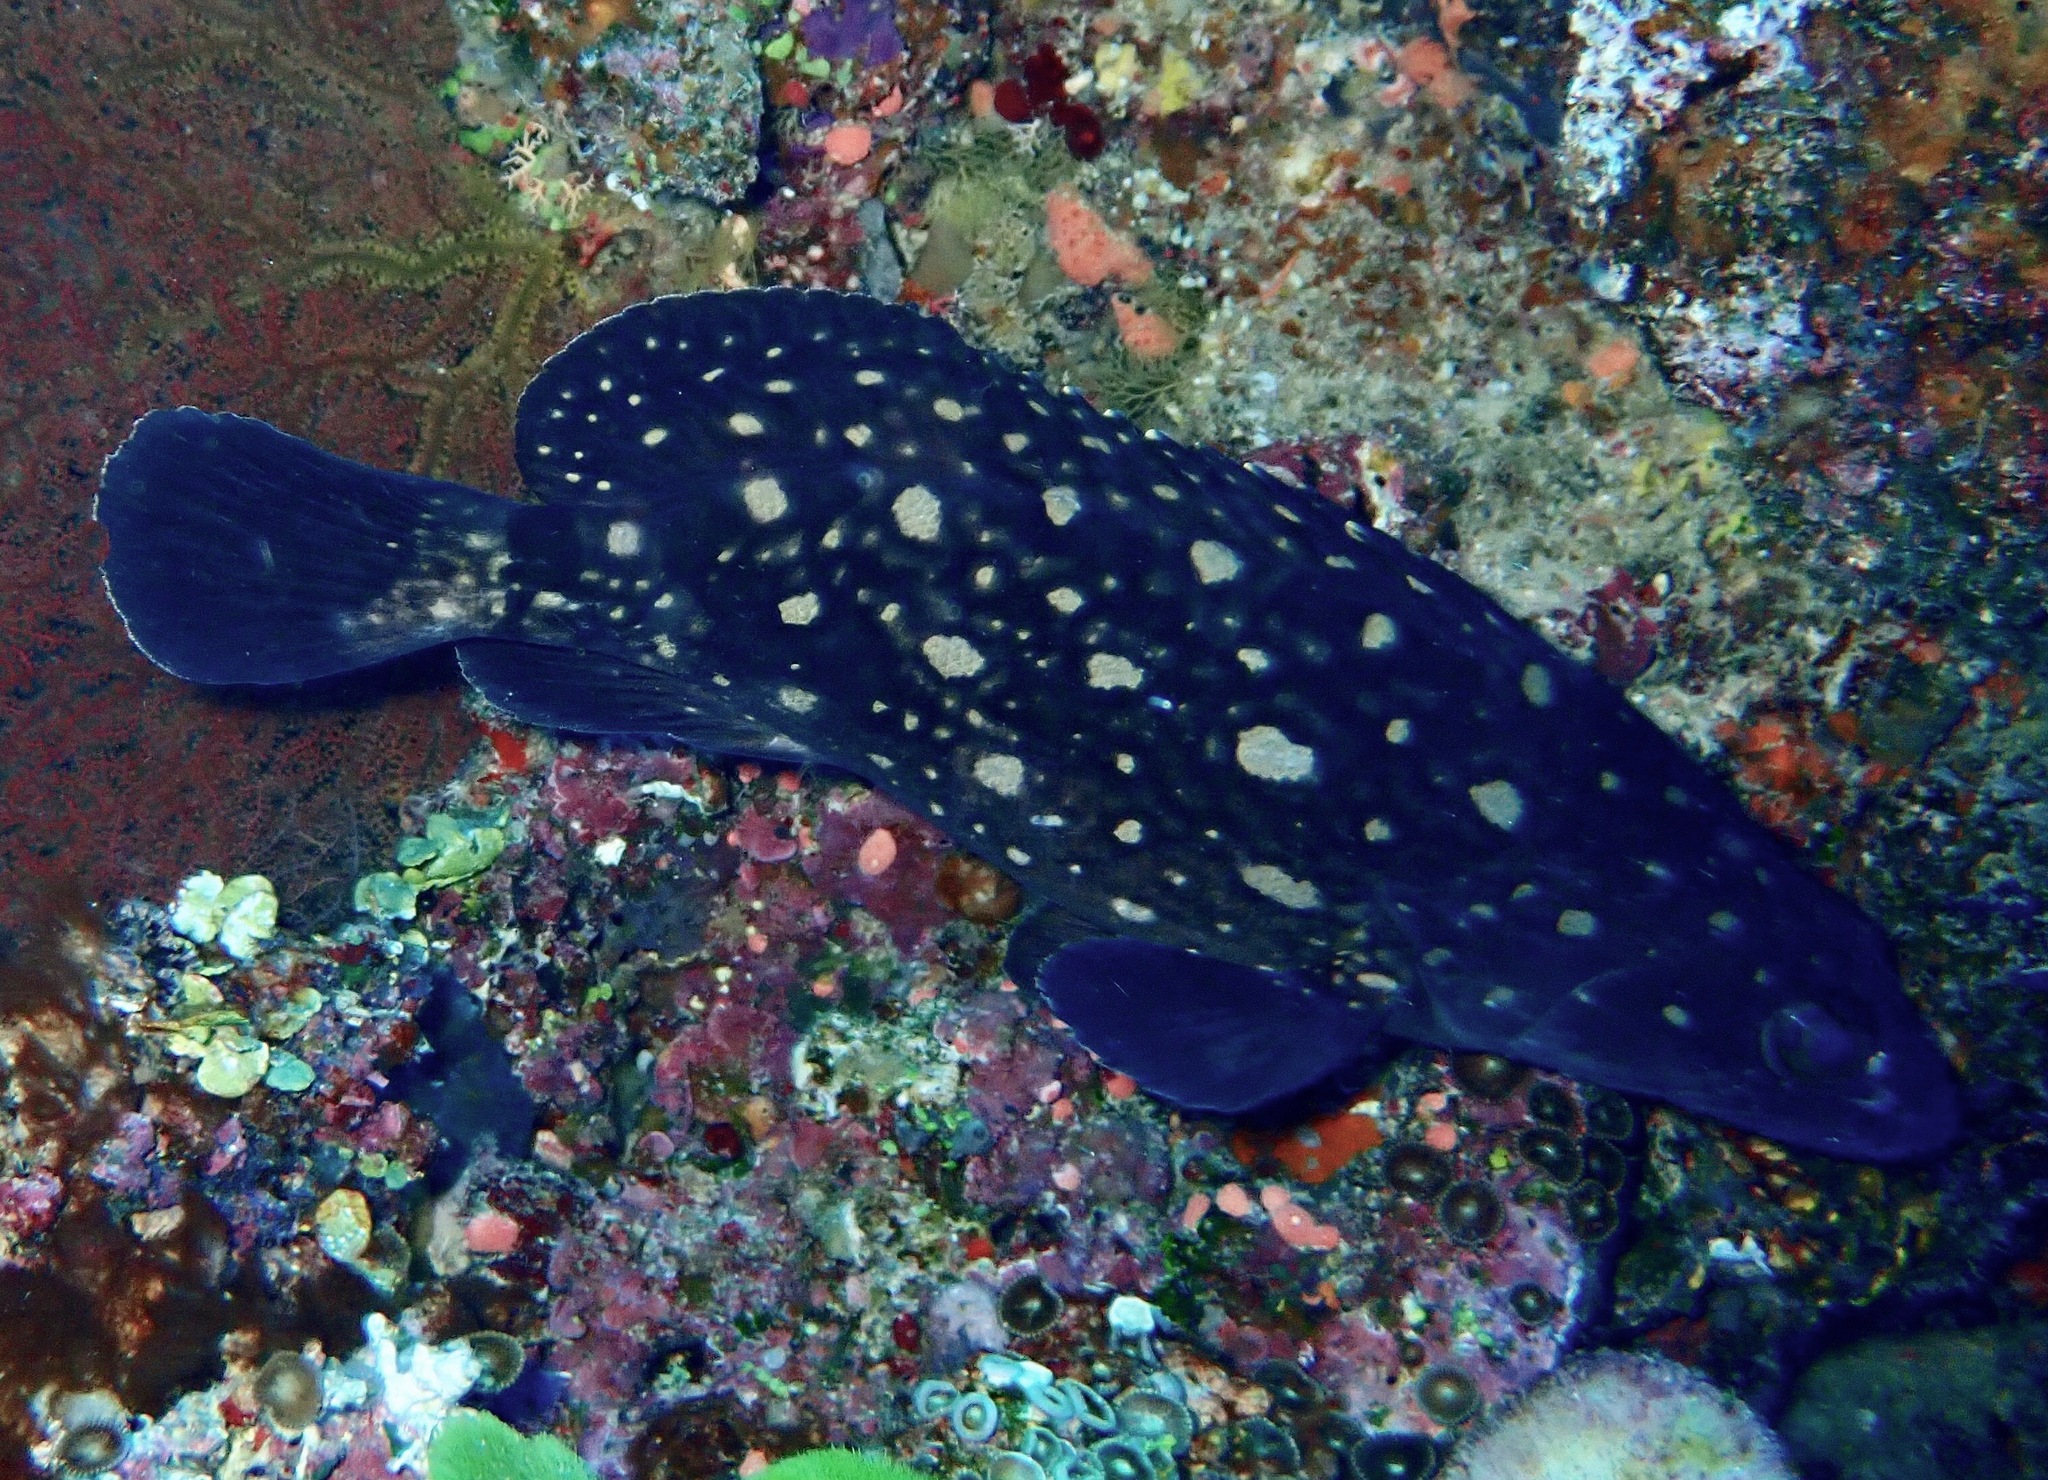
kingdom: Animalia
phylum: Chordata
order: Perciformes
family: Serranidae
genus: Epinephelus
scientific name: Epinephelus coeruleopunctatus
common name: Whitespotted grouper
